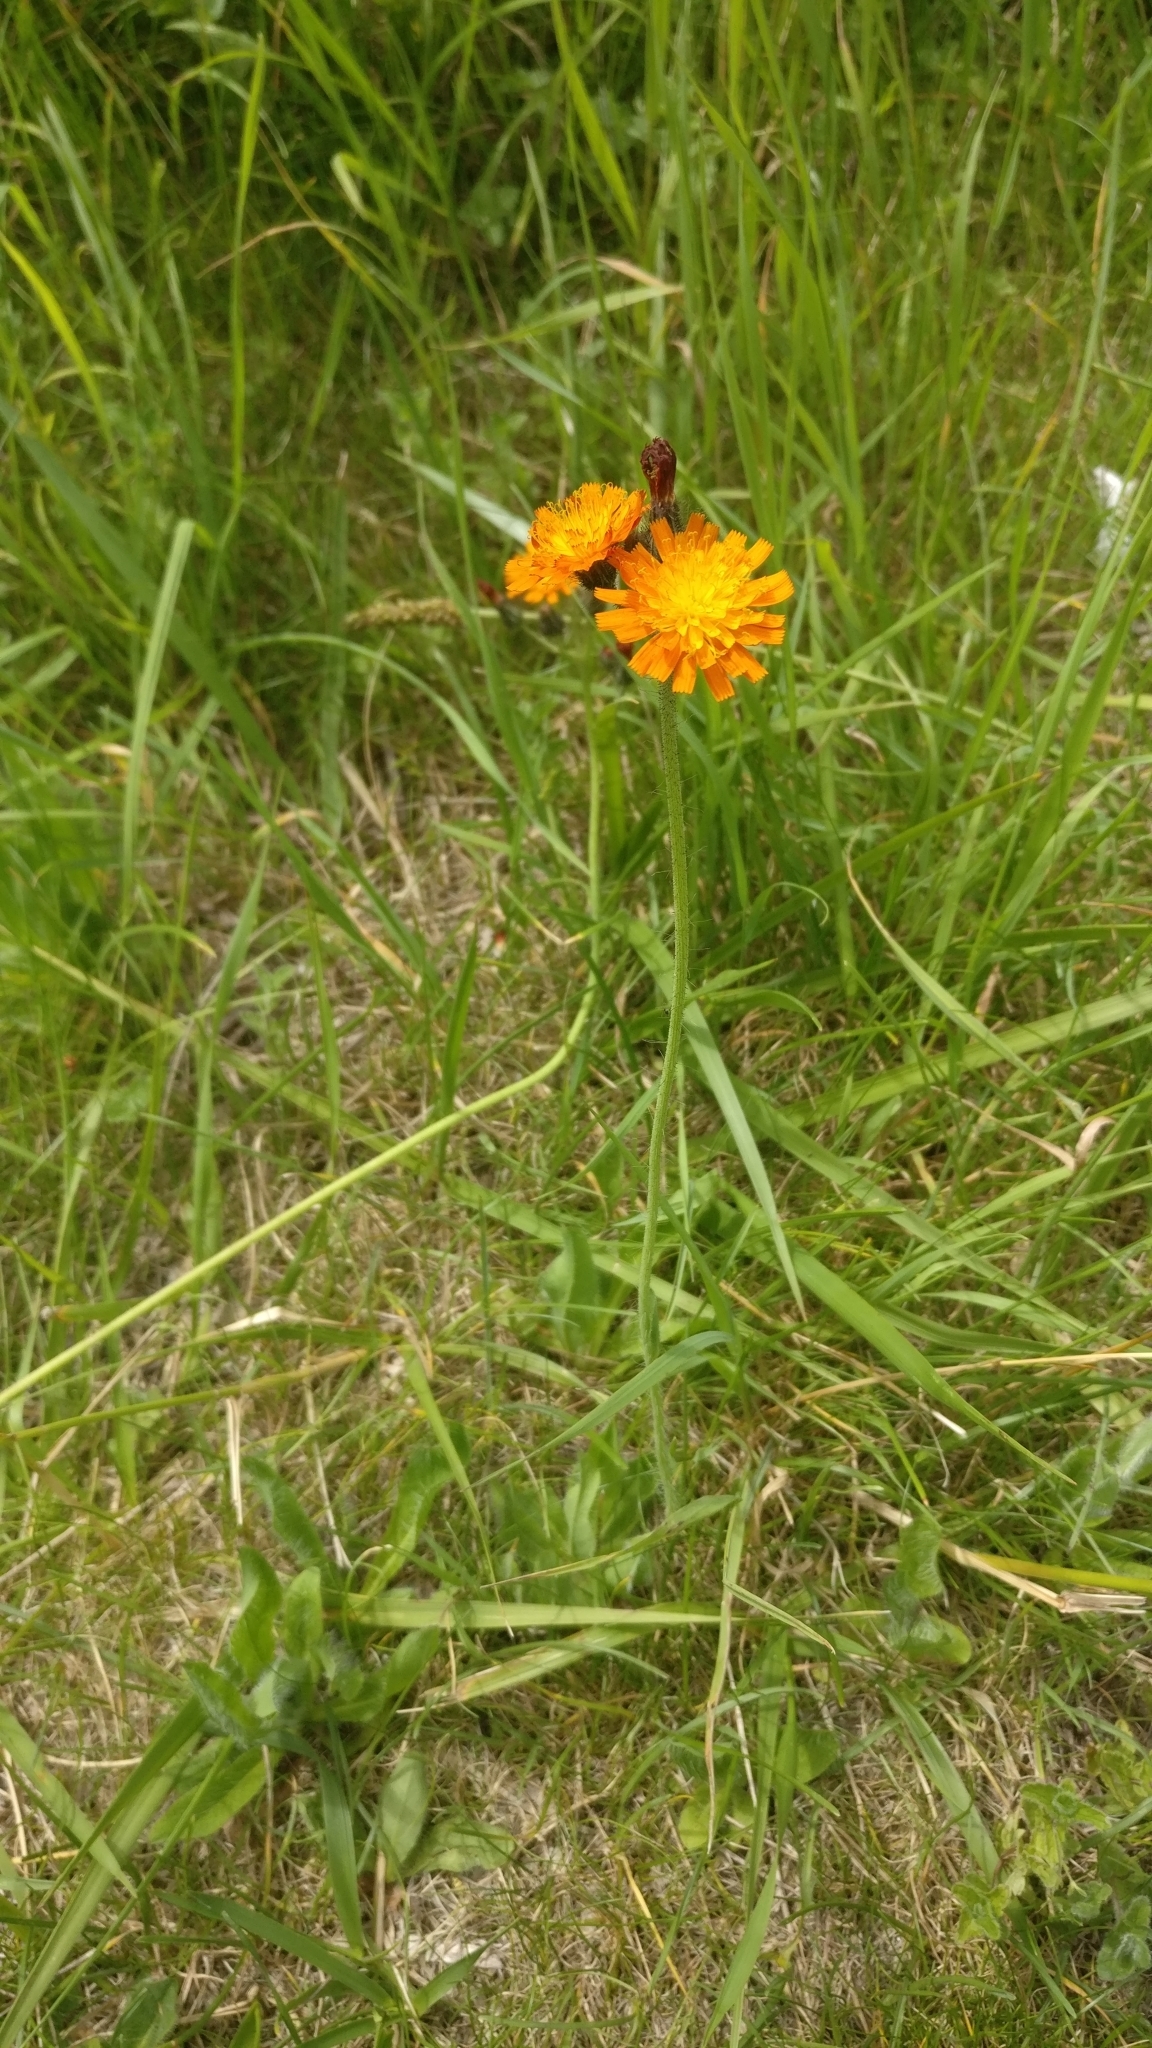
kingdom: Plantae
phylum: Tracheophyta
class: Magnoliopsida
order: Asterales
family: Asteraceae
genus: Pilosella
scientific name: Pilosella aurantiaca
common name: Fox-and-cubs
